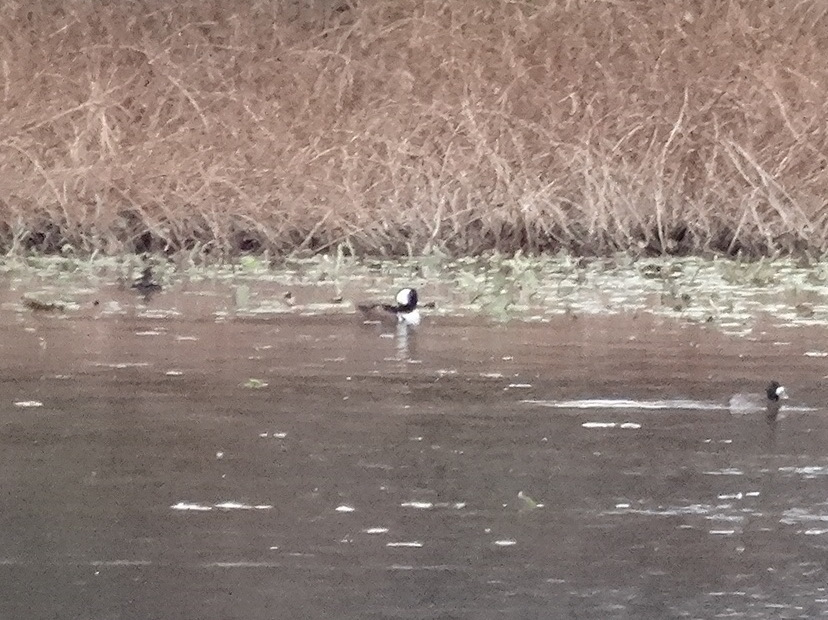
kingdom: Animalia
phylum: Chordata
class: Aves
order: Anseriformes
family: Anatidae
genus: Lophodytes
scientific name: Lophodytes cucullatus
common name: Hooded merganser
